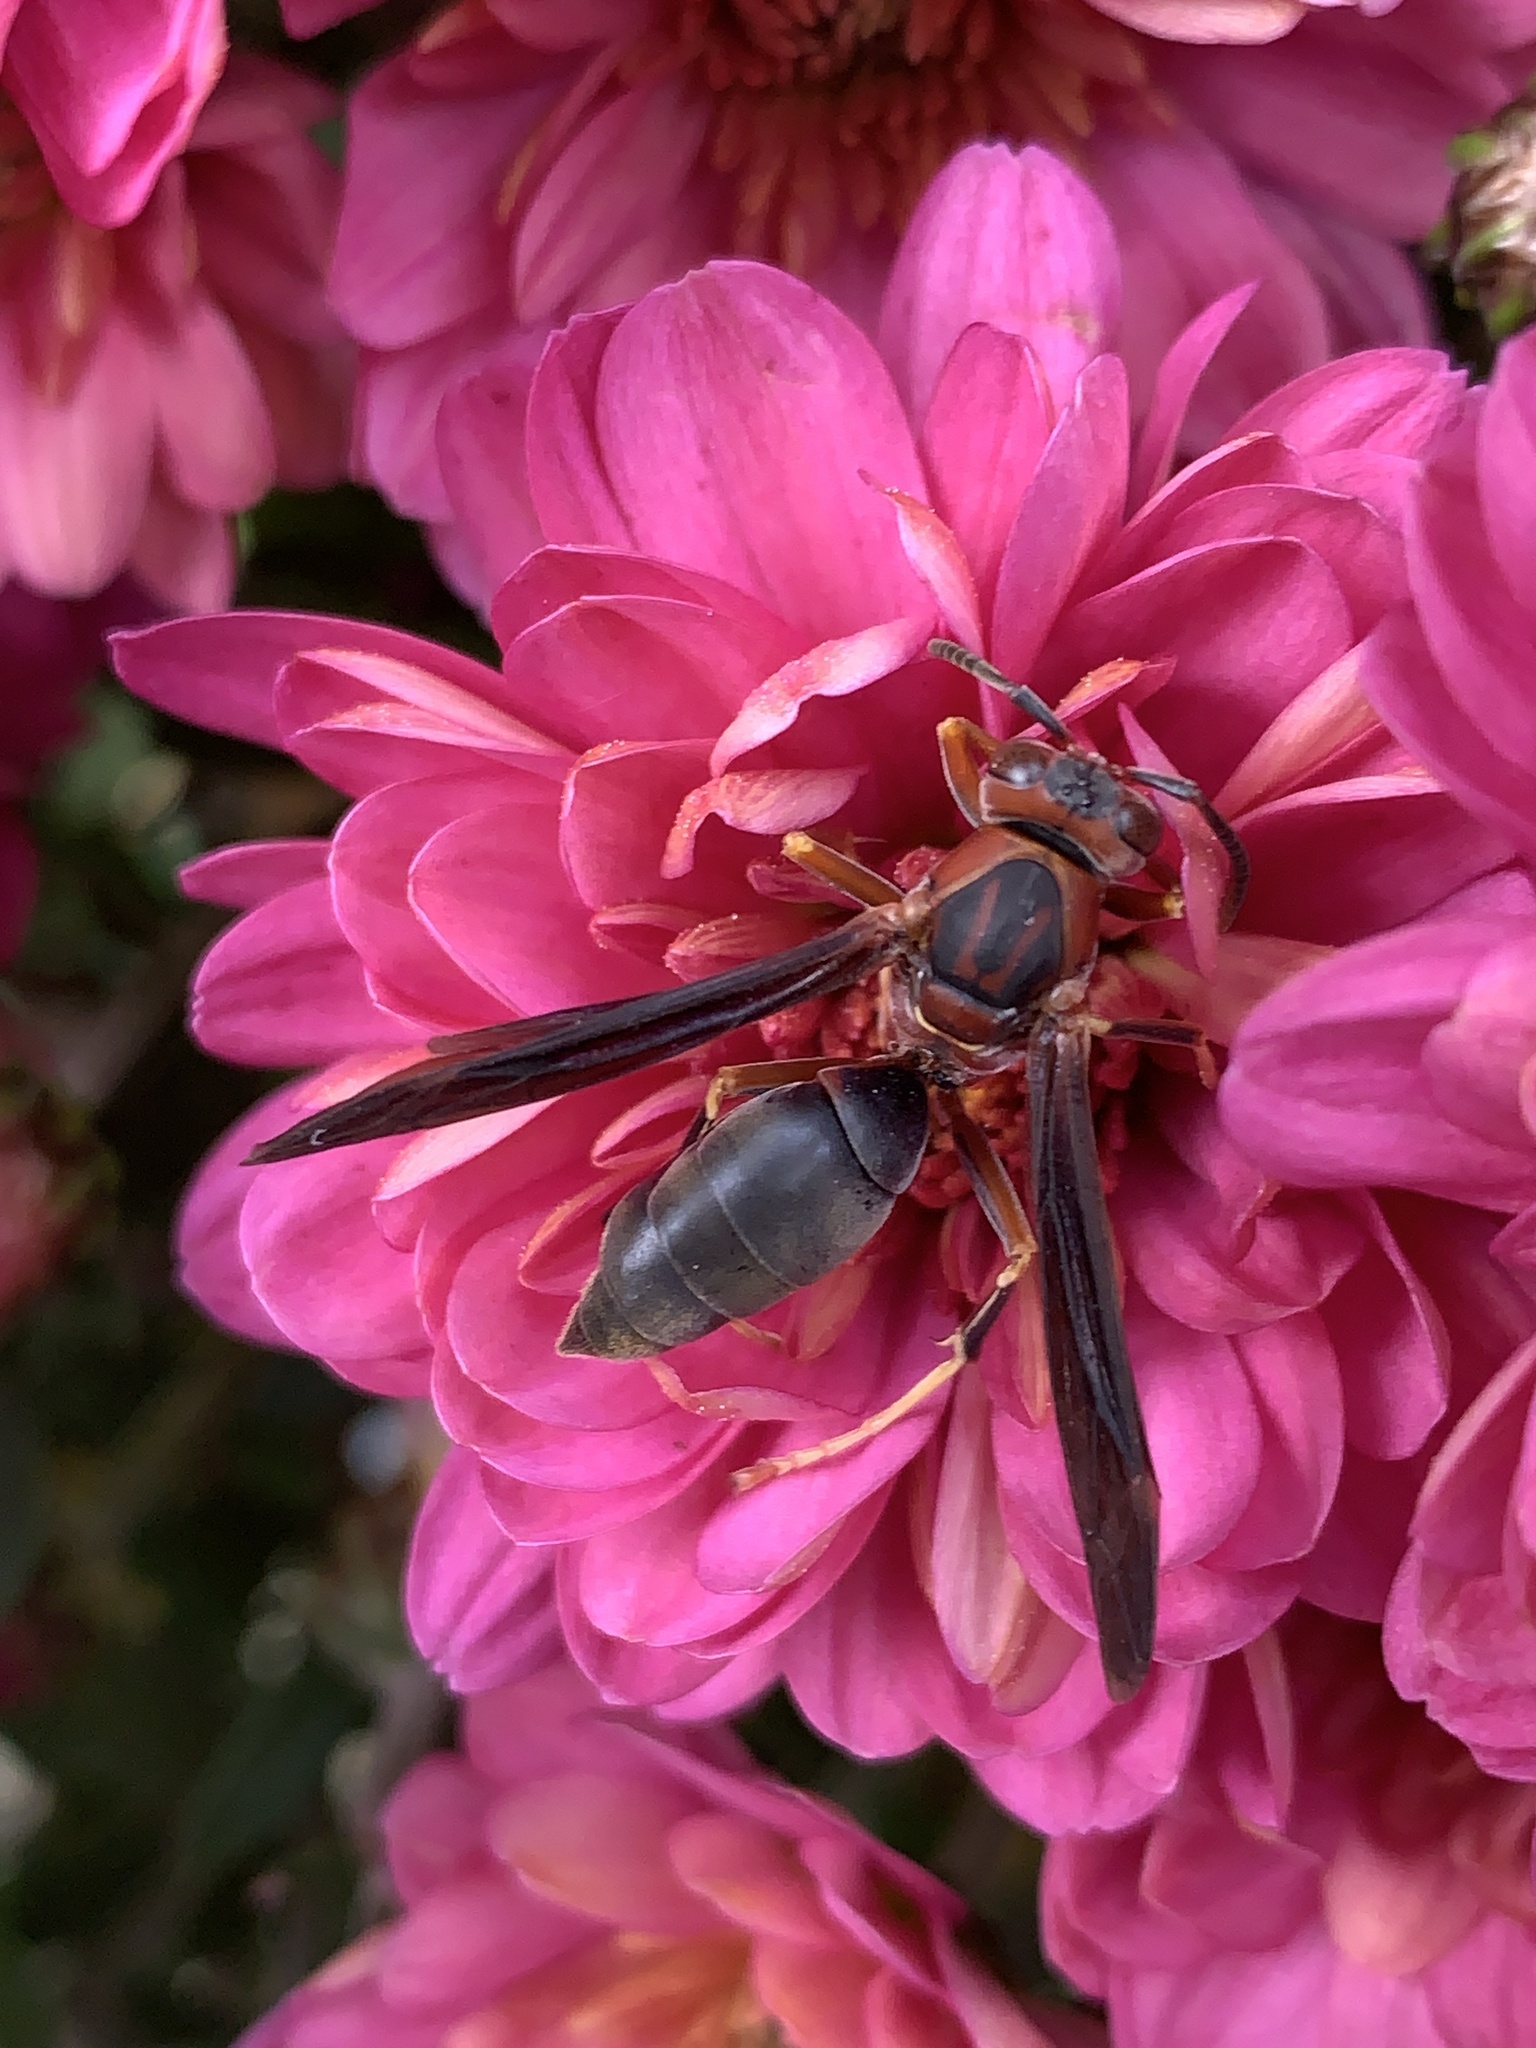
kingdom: Animalia
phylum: Arthropoda
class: Insecta
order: Hymenoptera
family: Eumenidae
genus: Polistes
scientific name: Polistes metricus
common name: Metric paper wasp
